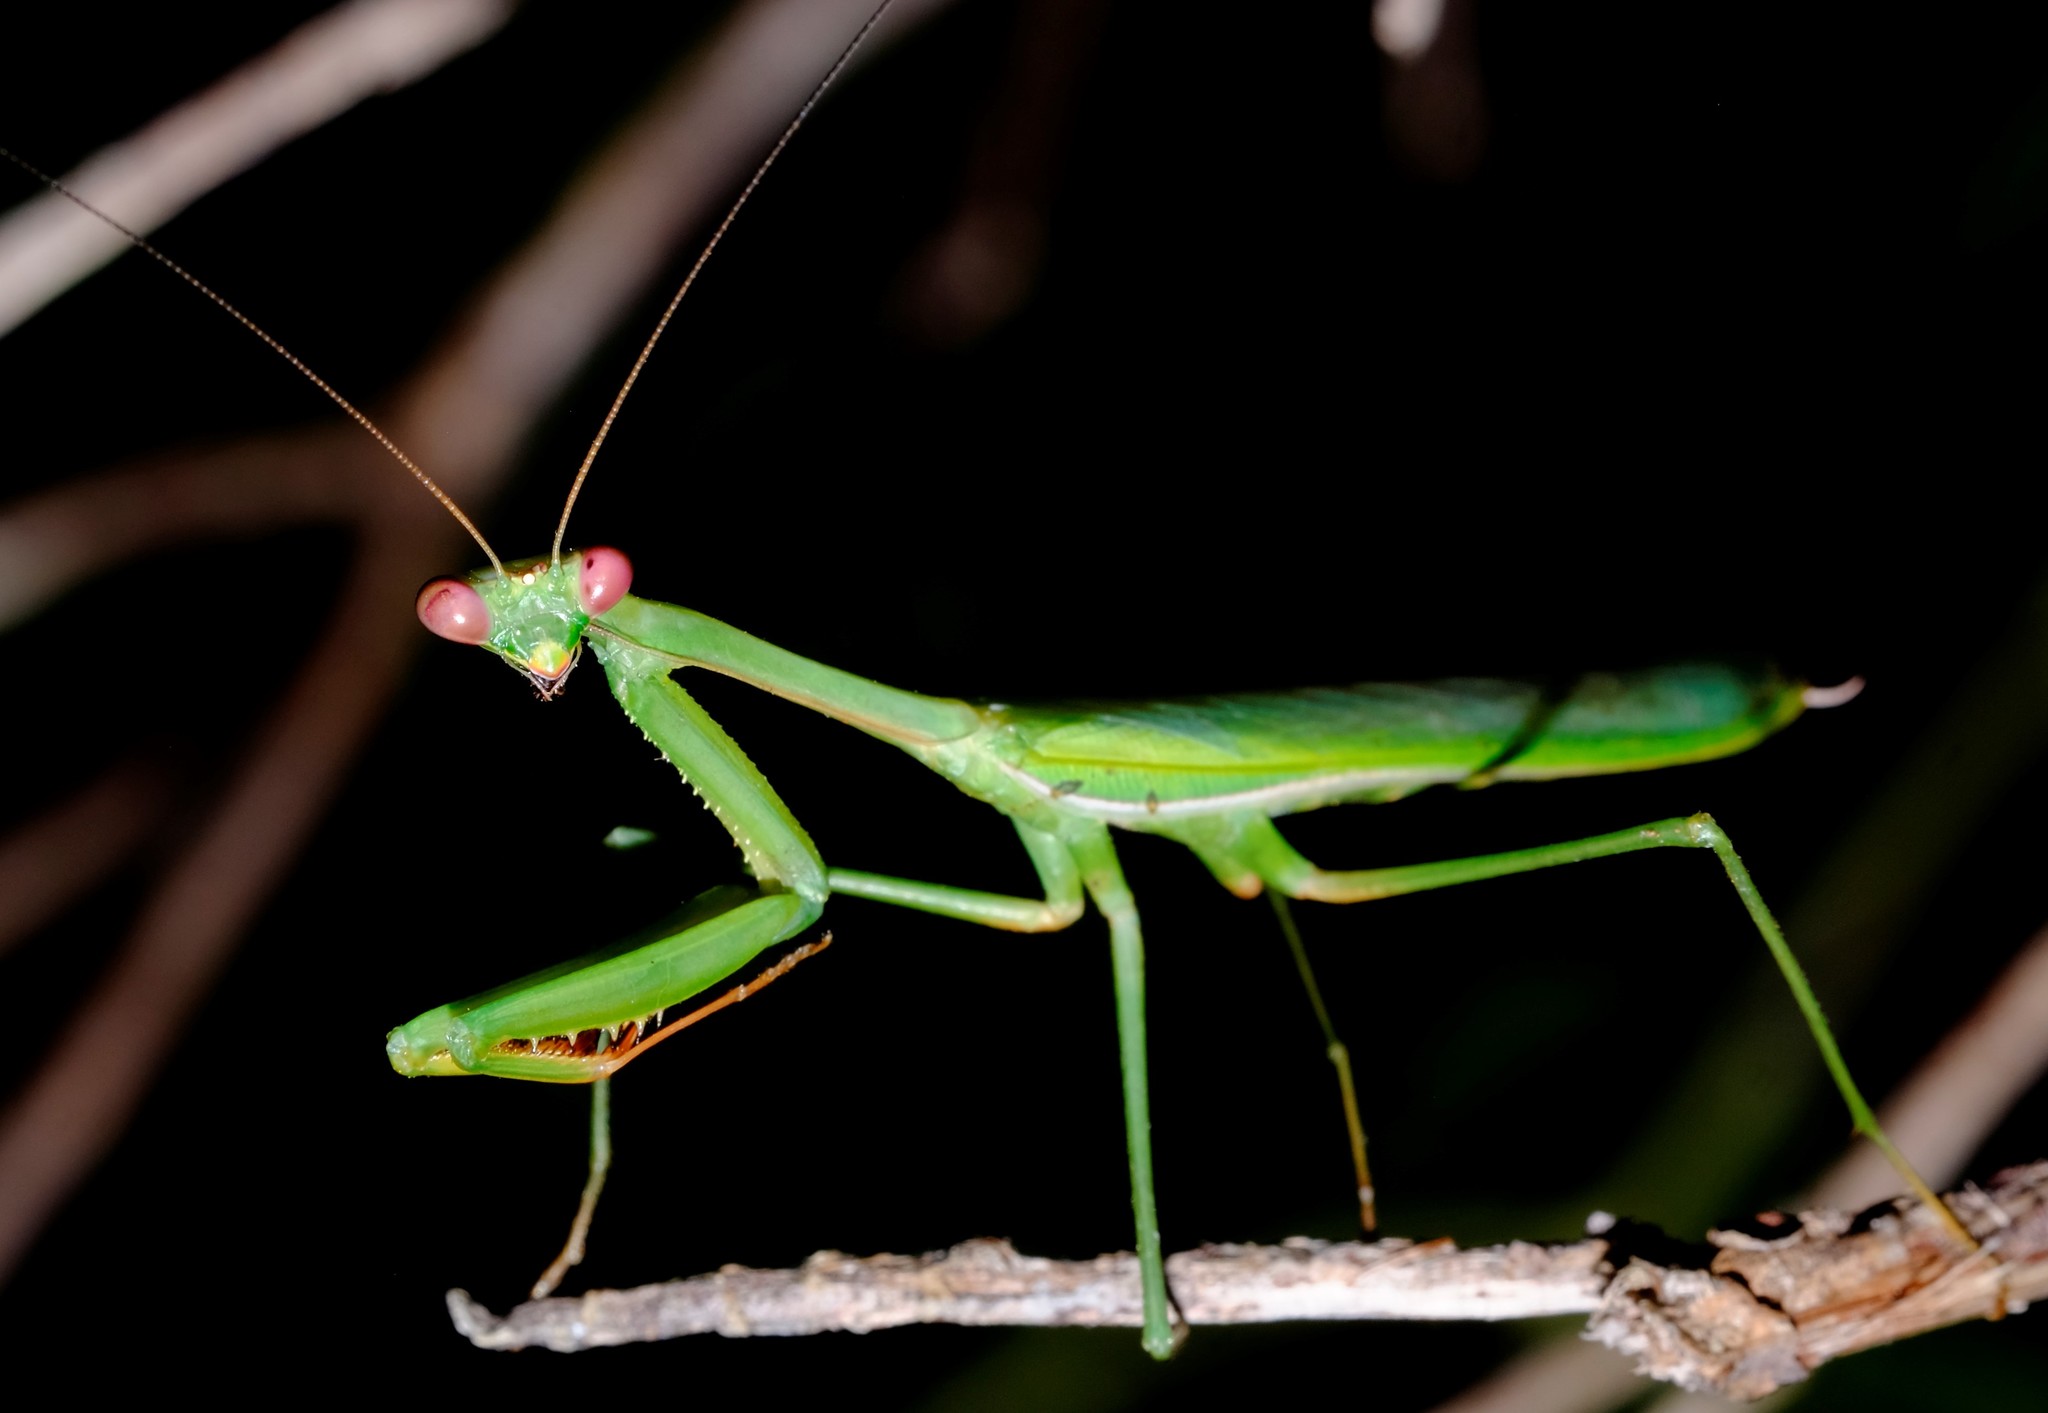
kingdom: Animalia
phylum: Arthropoda
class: Insecta
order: Mantodea
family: Mantidae
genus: Pseudomantis
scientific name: Pseudomantis albofimbriata
